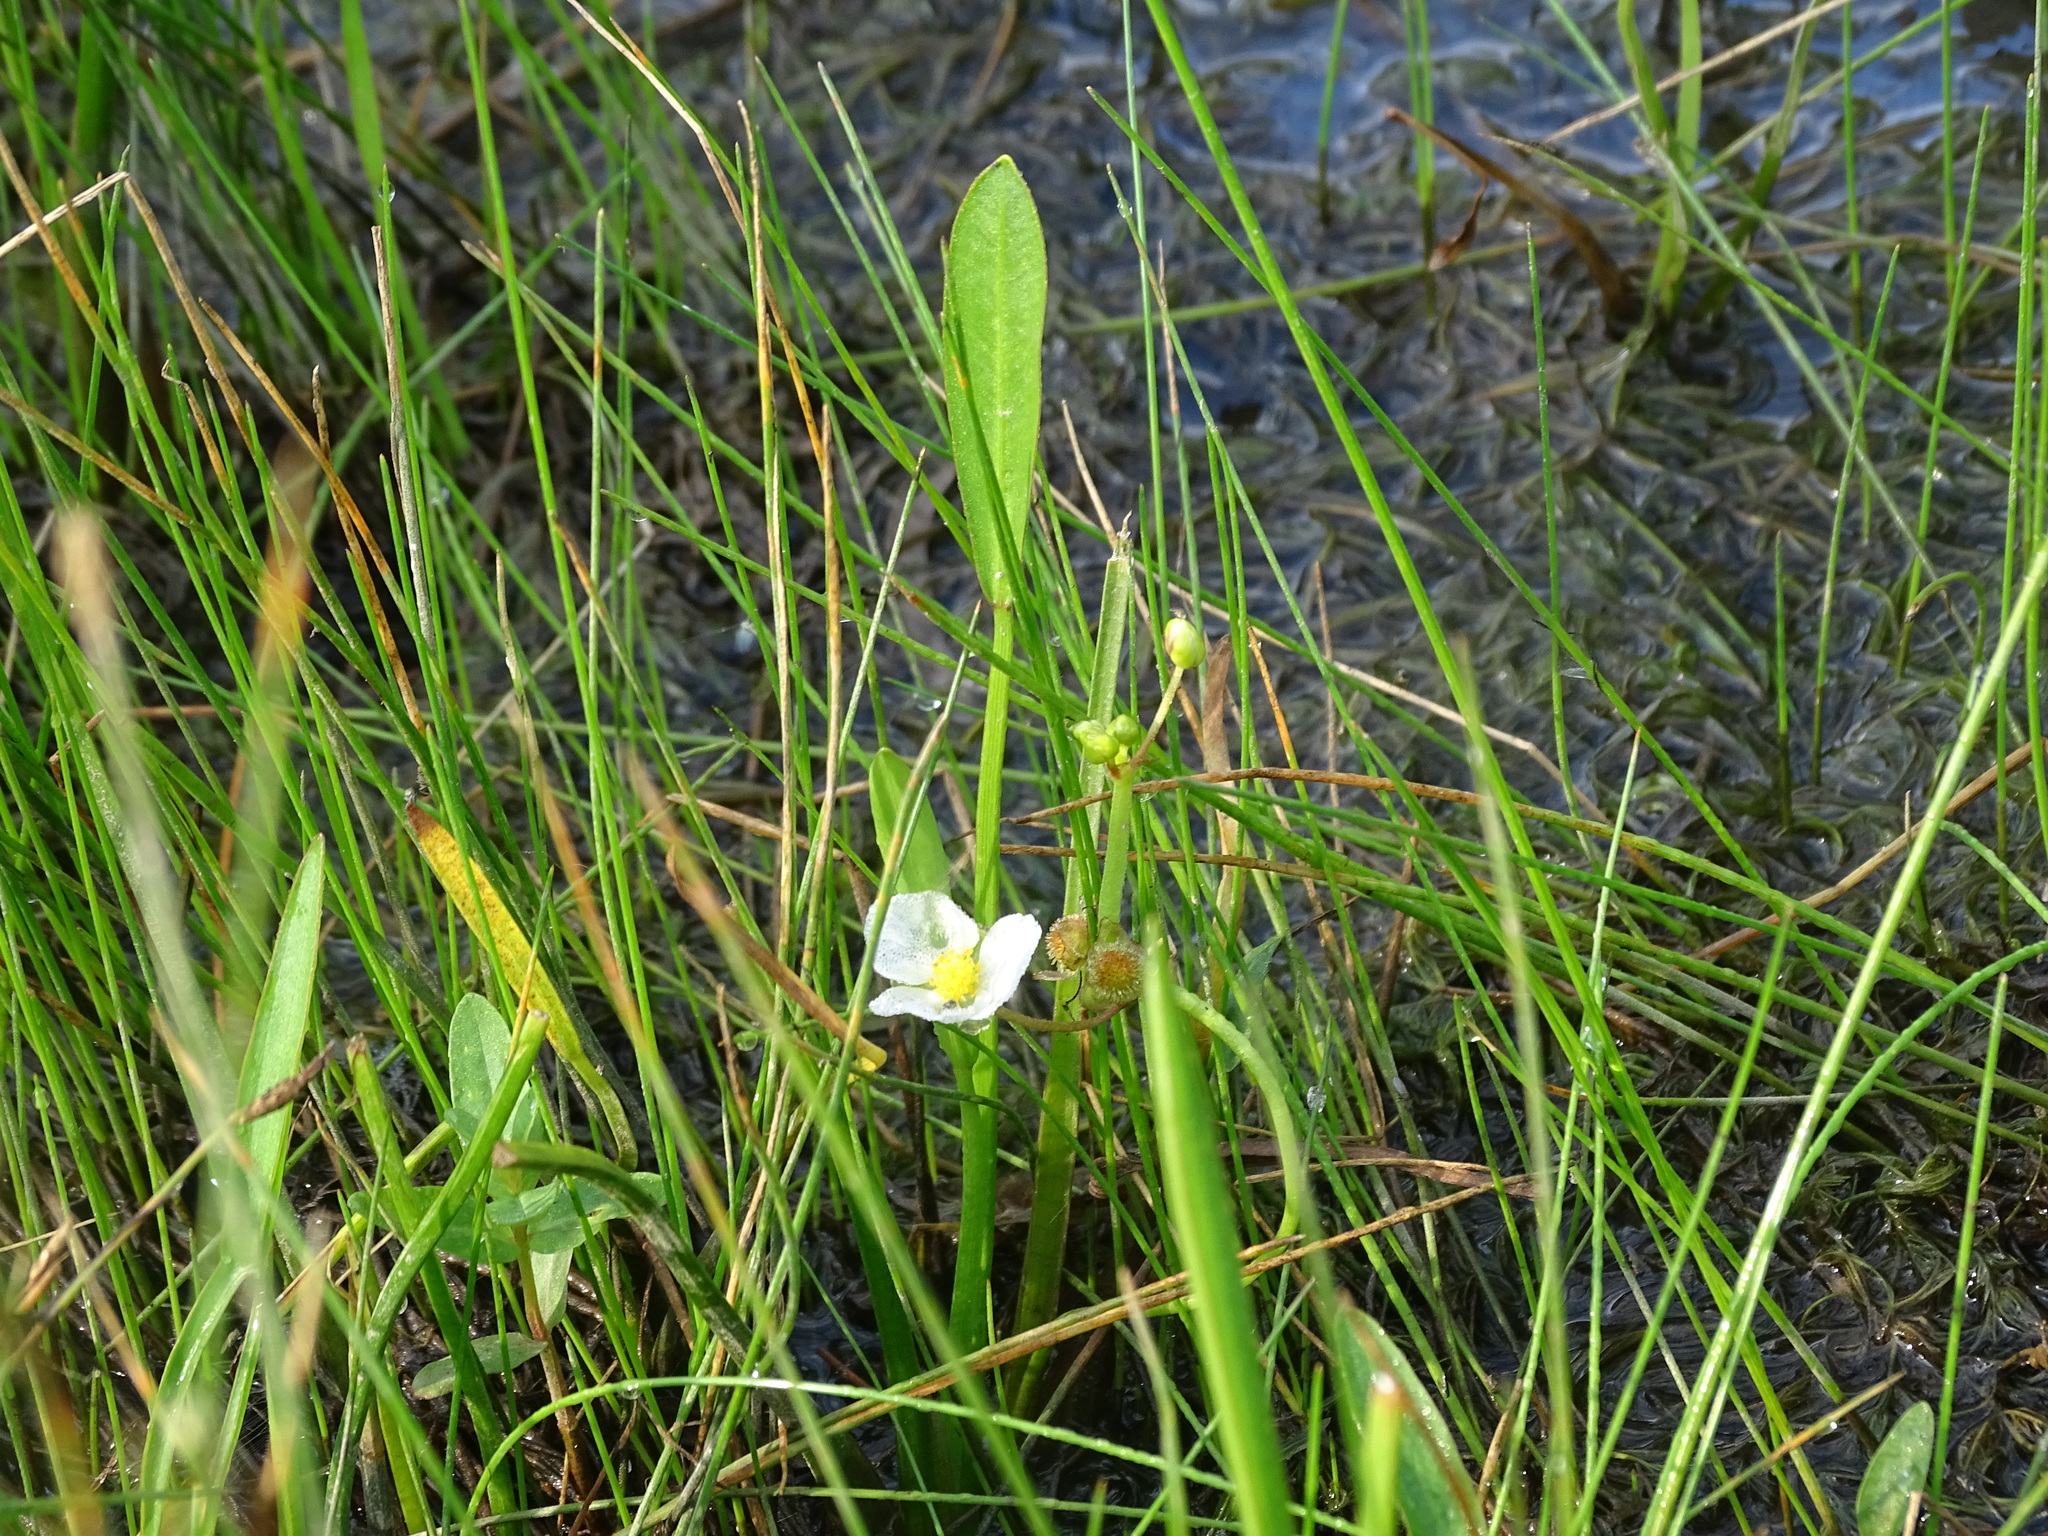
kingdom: Plantae
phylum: Tracheophyta
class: Liliopsida
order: Alismatales
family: Alismataceae
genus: Sagittaria
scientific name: Sagittaria rigida
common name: Canadian arrowhead
